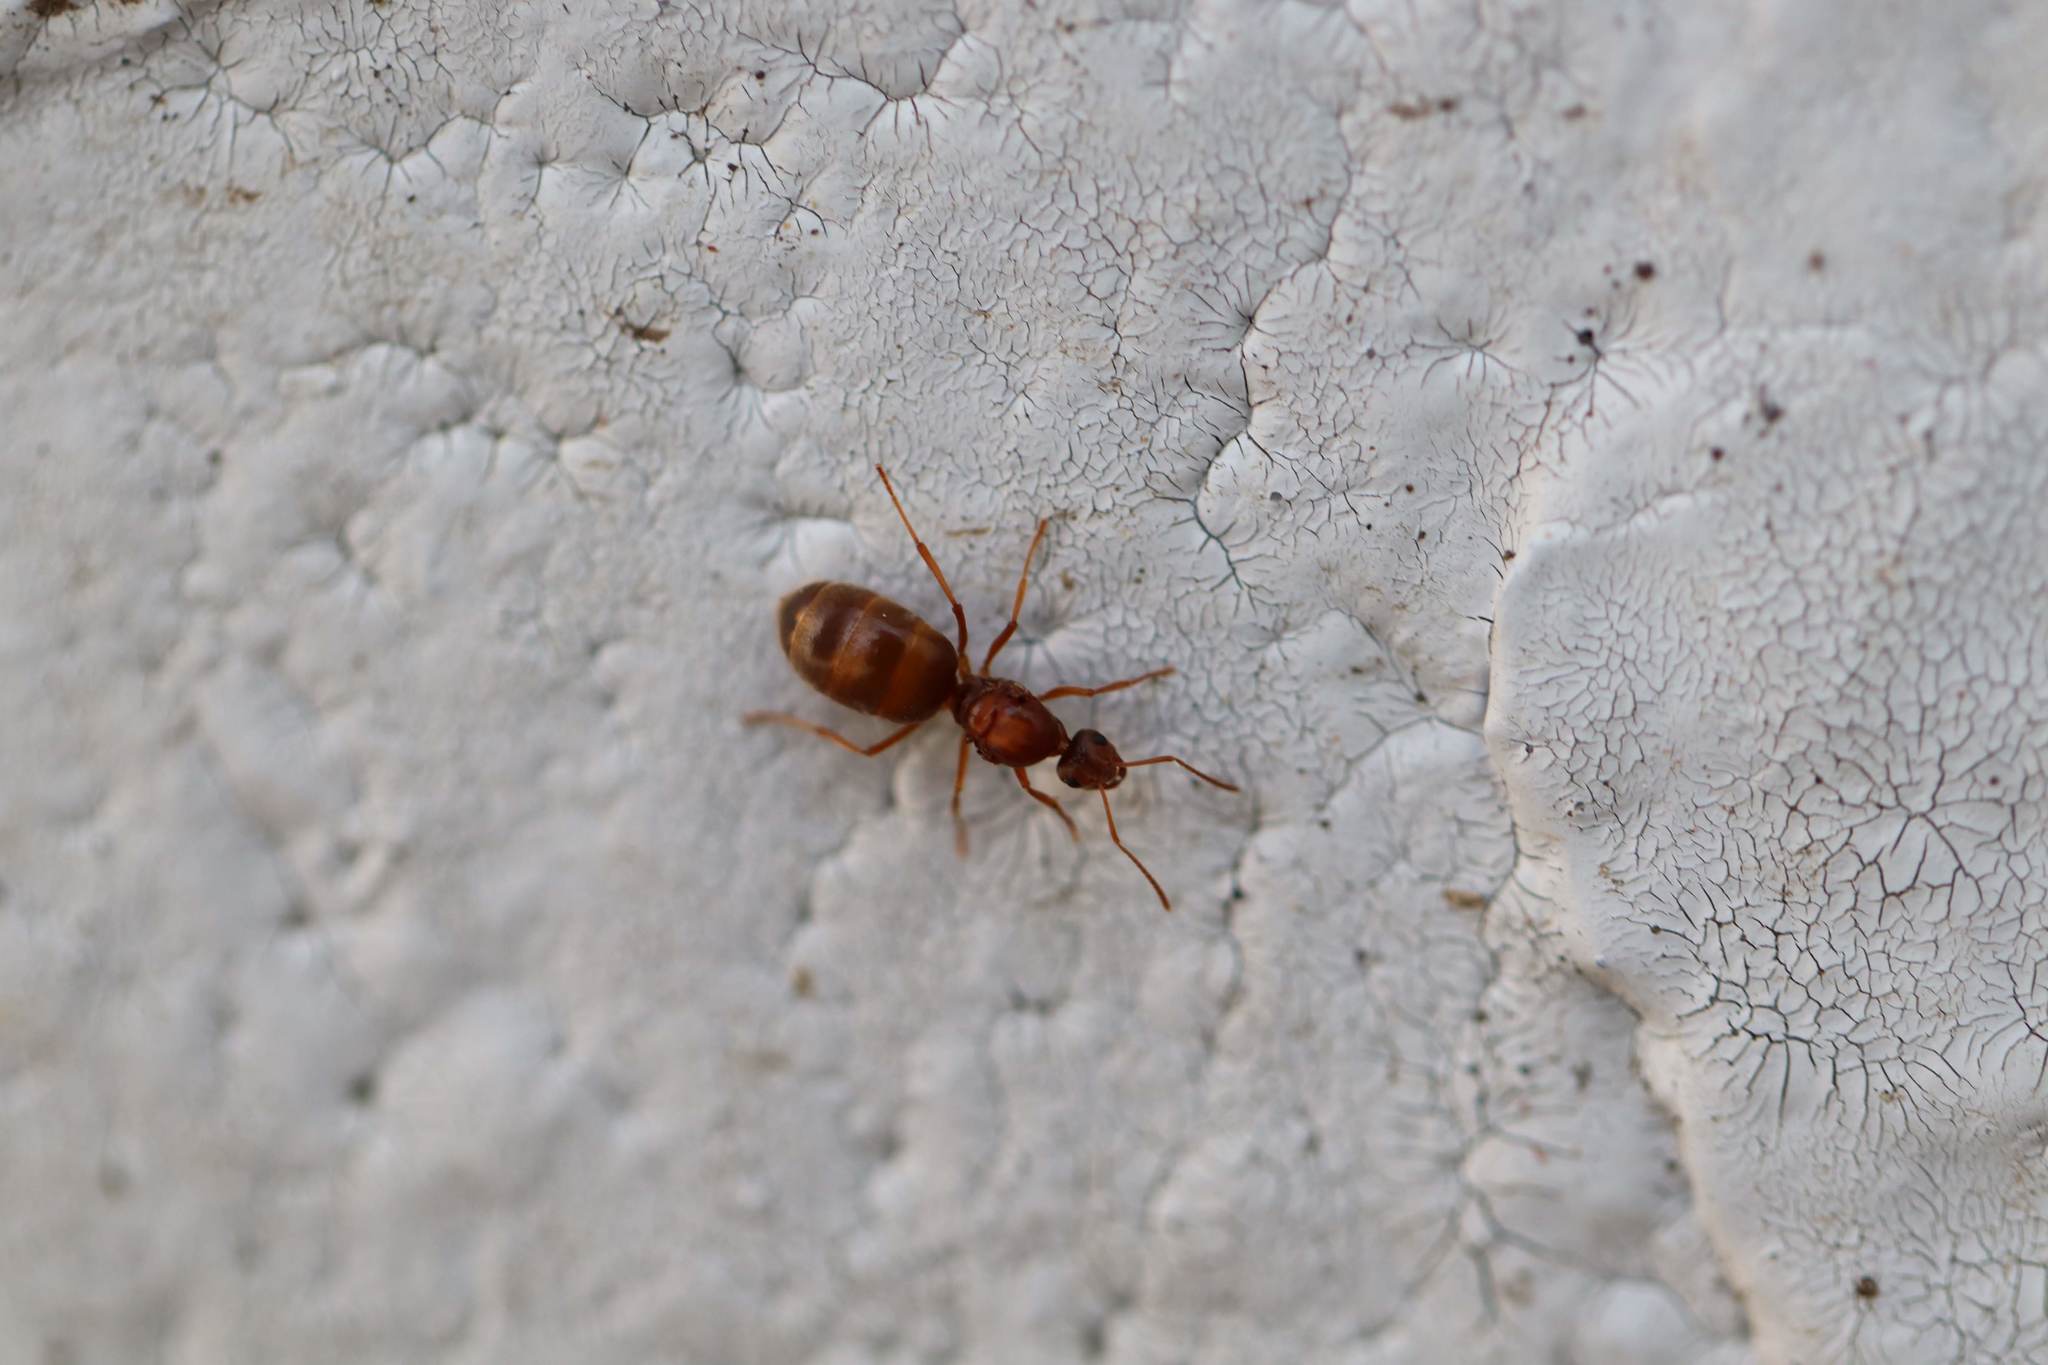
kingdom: Animalia
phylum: Arthropoda
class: Insecta
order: Hymenoptera
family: Formicidae
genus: Prenolepis
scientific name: Prenolepis imparis
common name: Small honey ant
